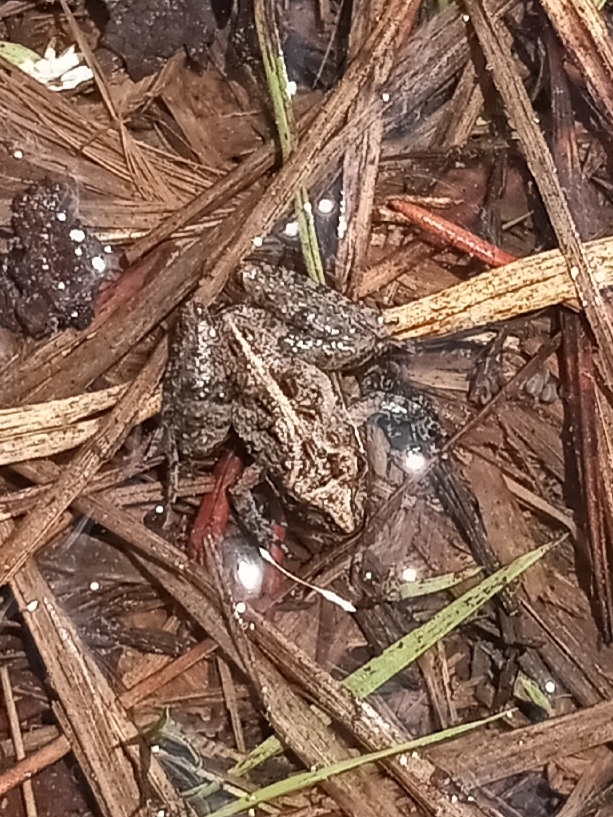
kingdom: Animalia
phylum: Chordata
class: Amphibia
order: Anura
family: Hylidae
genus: Acris
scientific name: Acris gryllus
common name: Southern cricket frog
